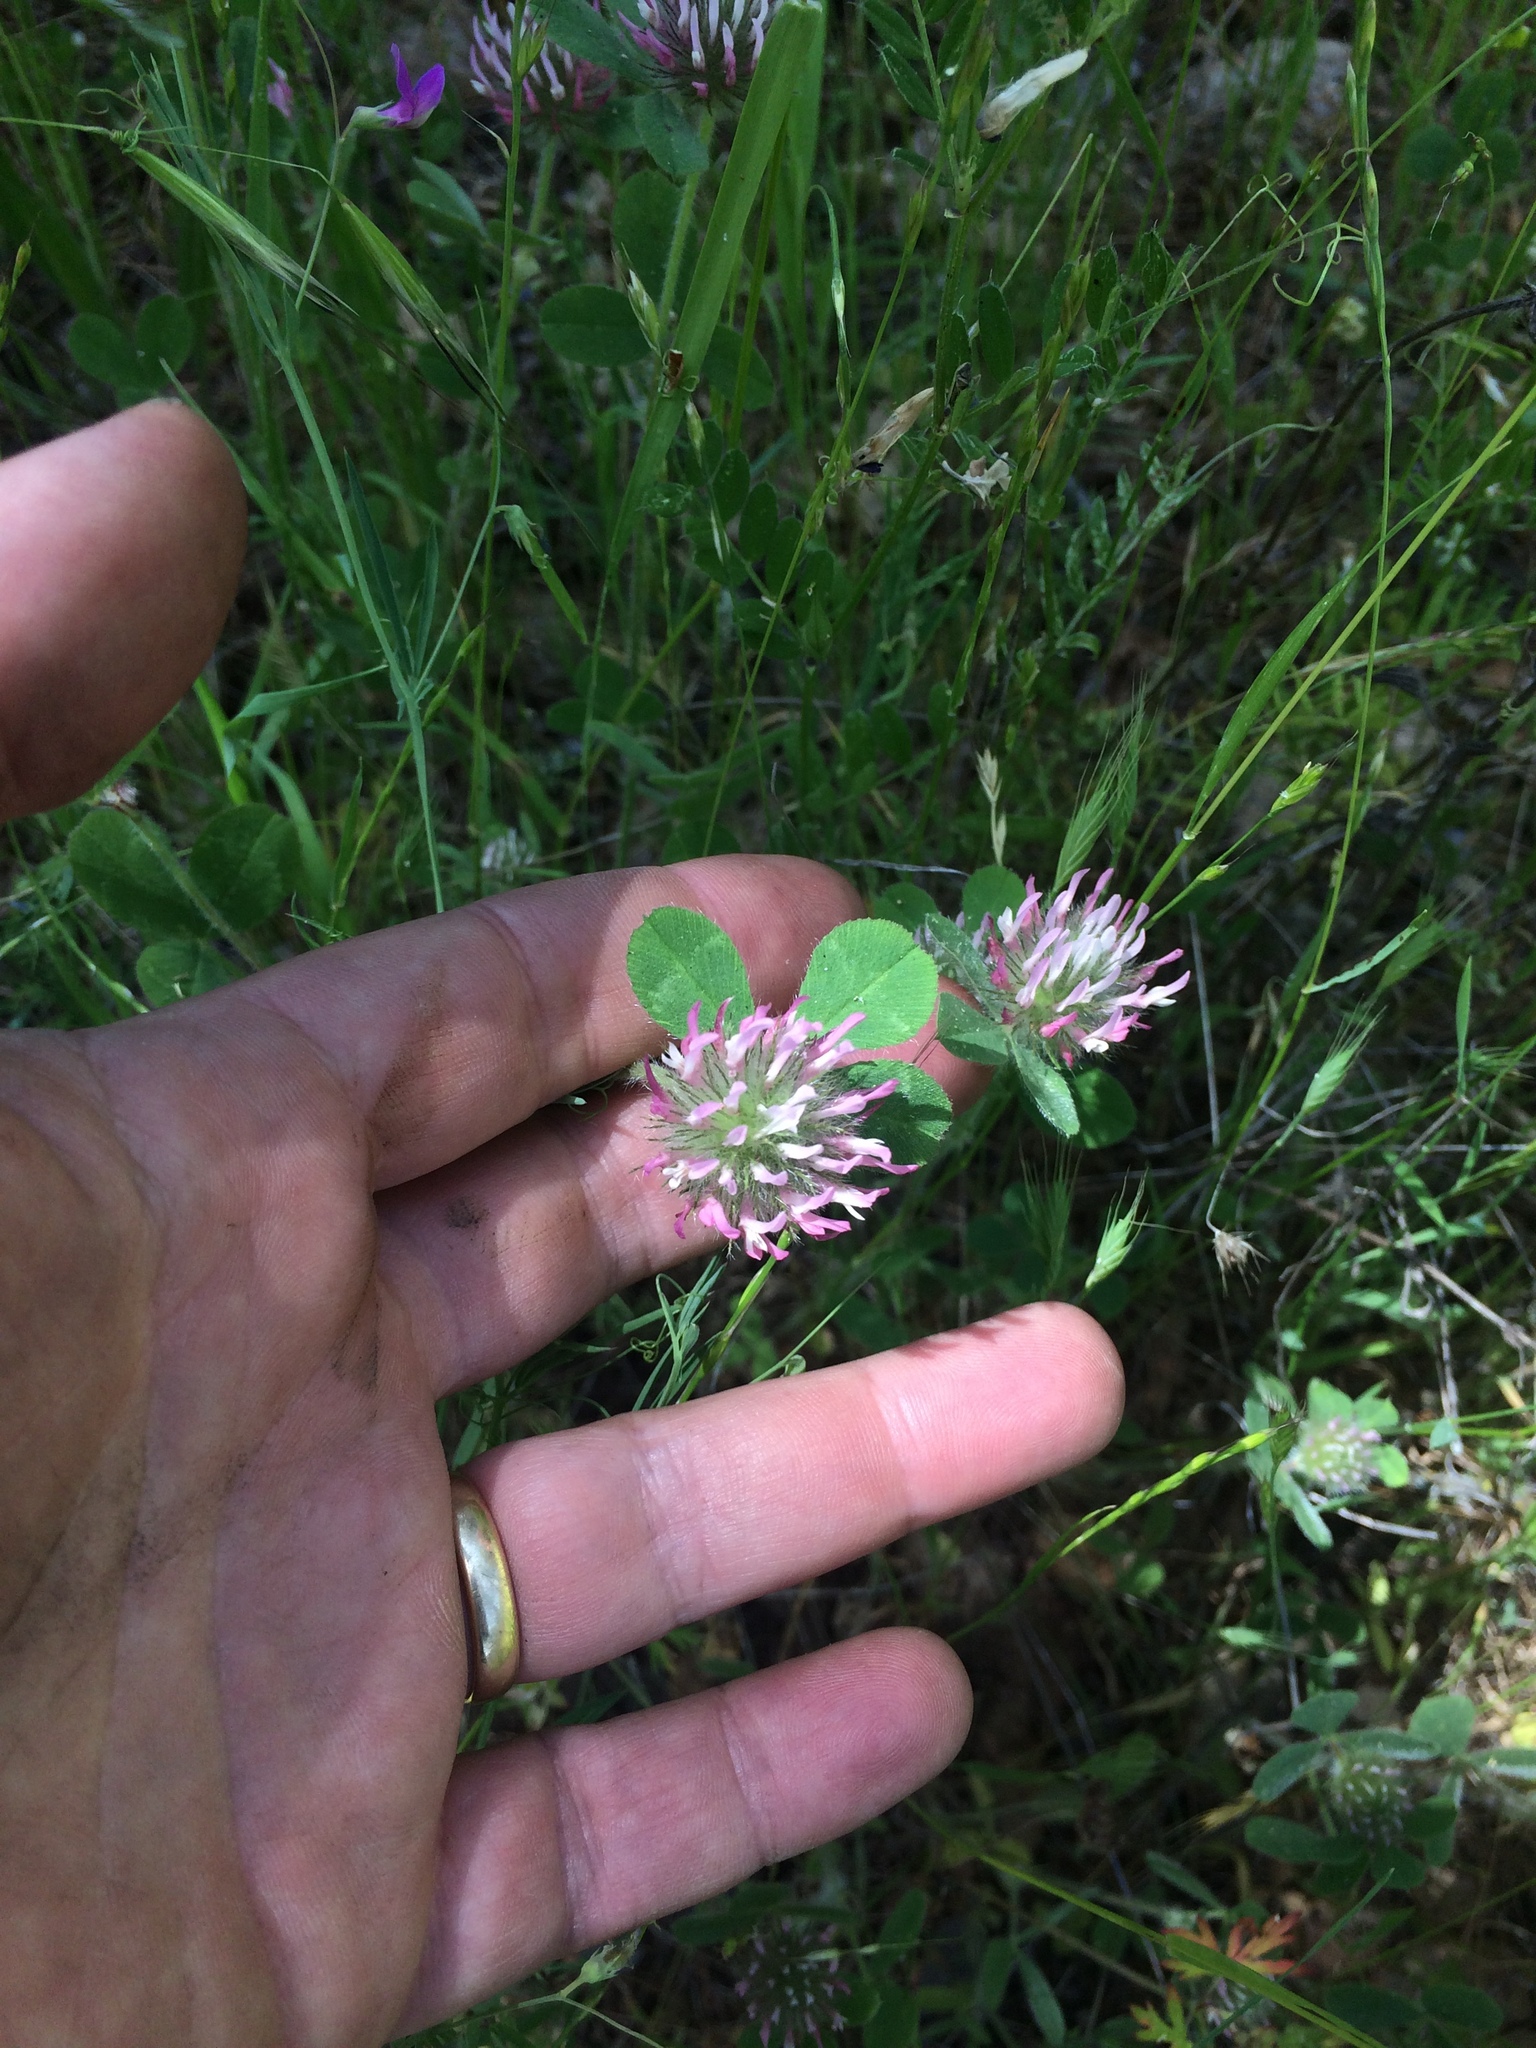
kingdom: Plantae
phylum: Tracheophyta
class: Magnoliopsida
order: Fabales
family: Fabaceae
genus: Trifolium
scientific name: Trifolium hirtum
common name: Rose clover
